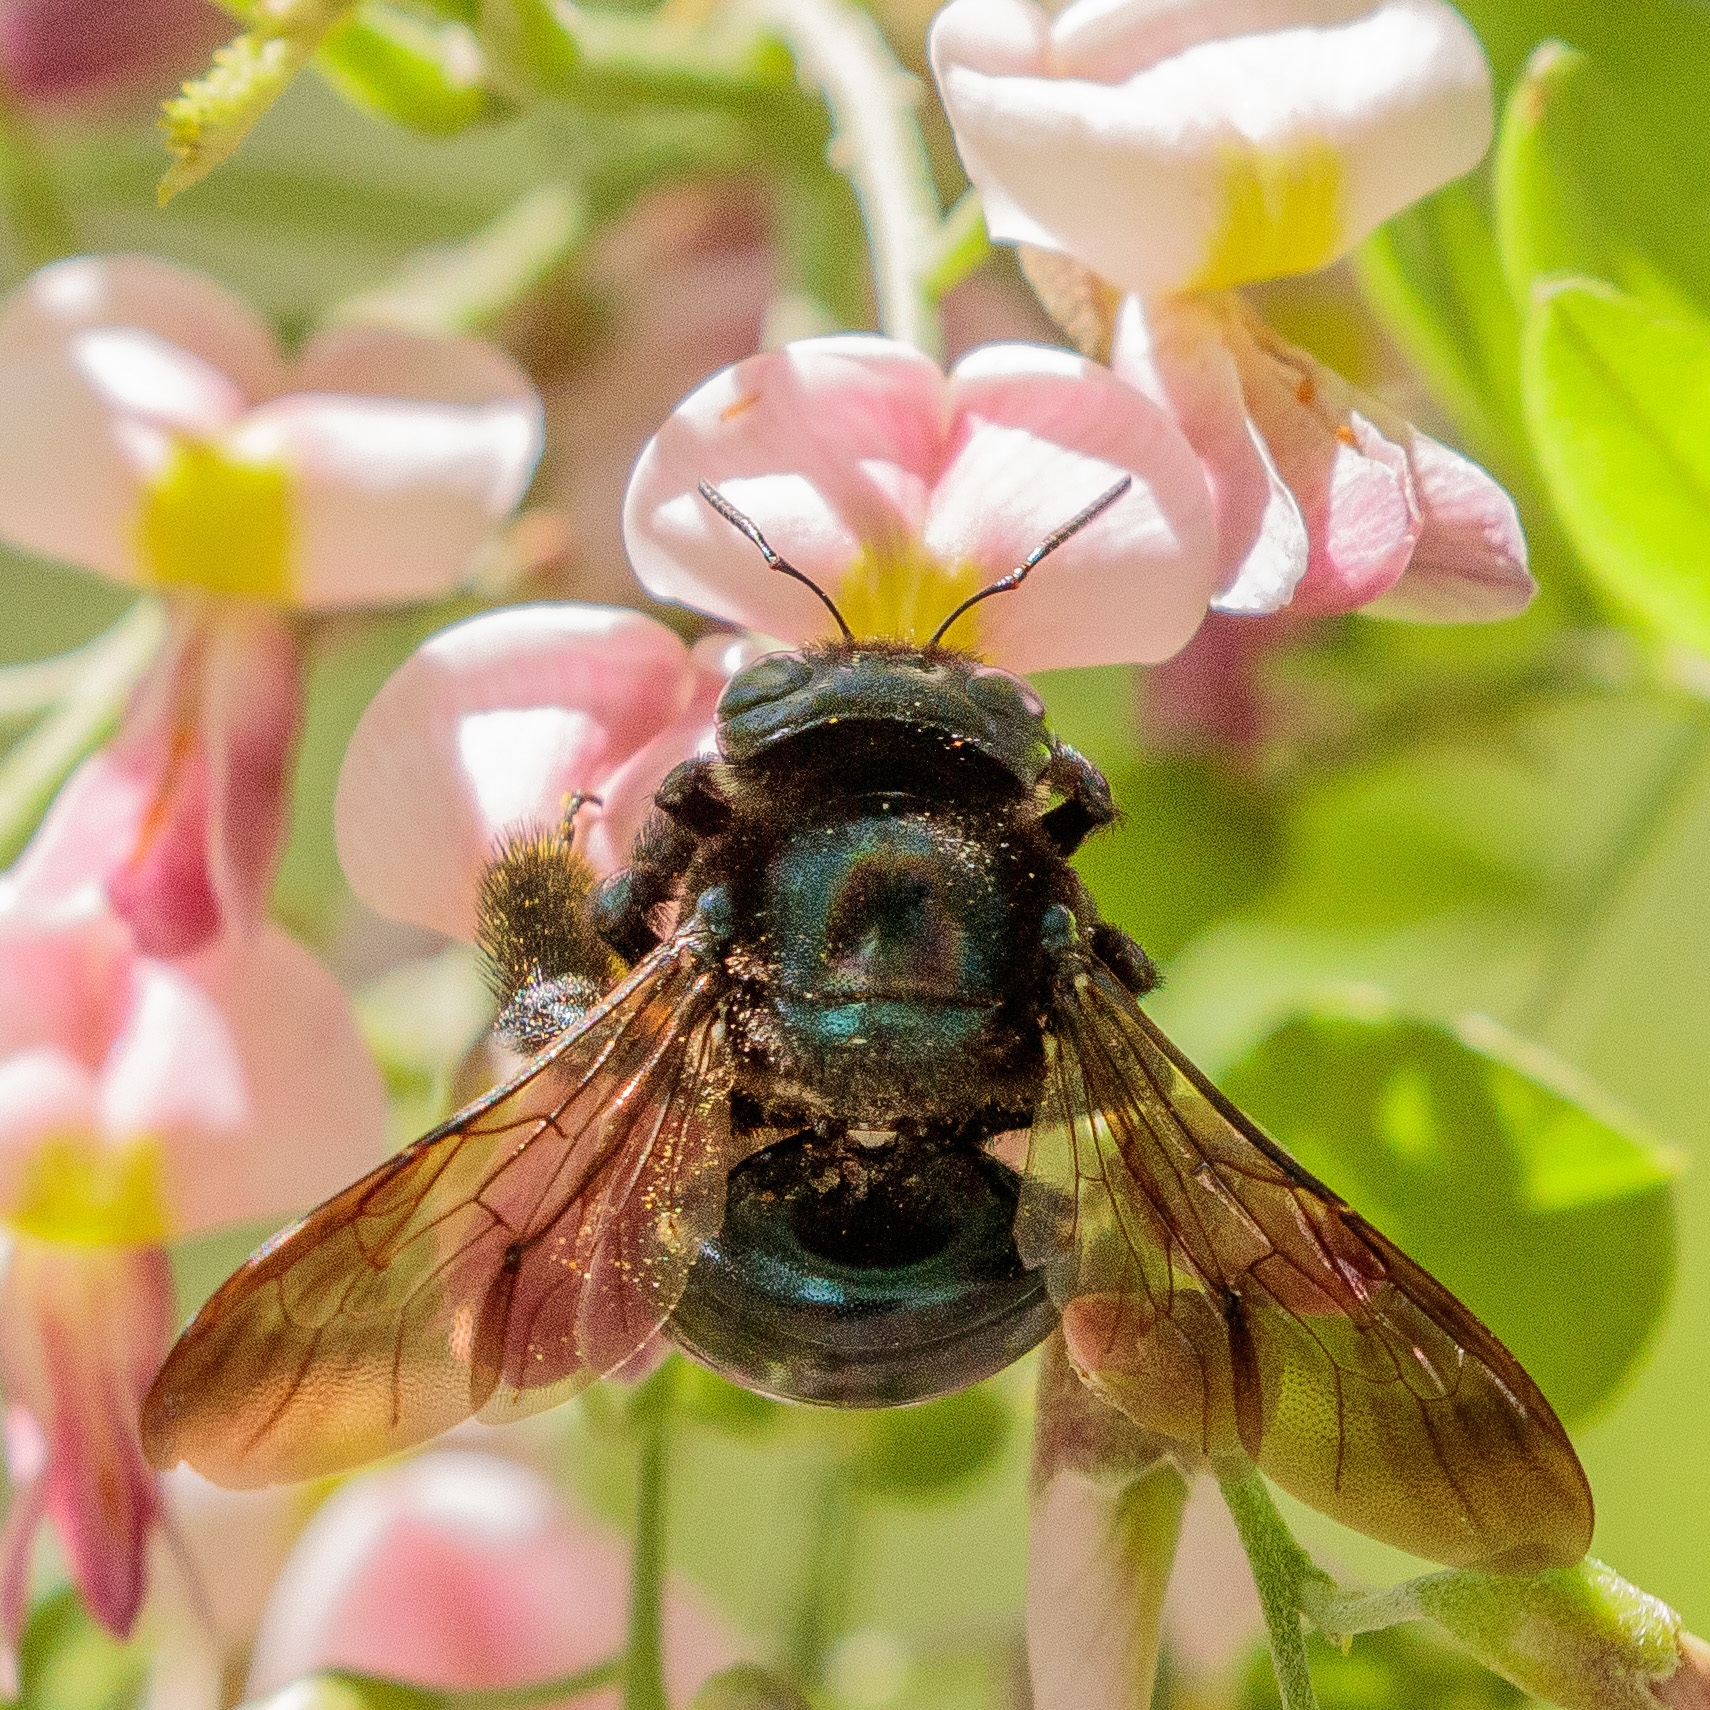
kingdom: Animalia
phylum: Arthropoda
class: Insecta
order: Hymenoptera
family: Apidae
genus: Xylocopa
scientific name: Xylocopa micans
